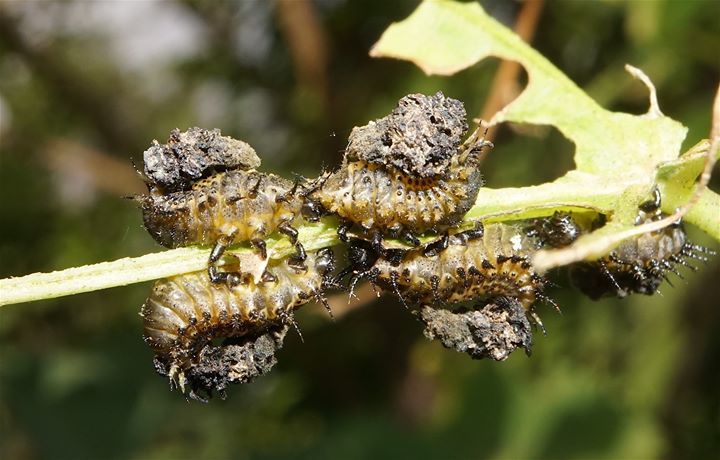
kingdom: Animalia
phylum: Arthropoda
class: Insecta
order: Coleoptera
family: Chrysomelidae
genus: Chelymorpha
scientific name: Chelymorpha cribraria
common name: Tortoise beetle
